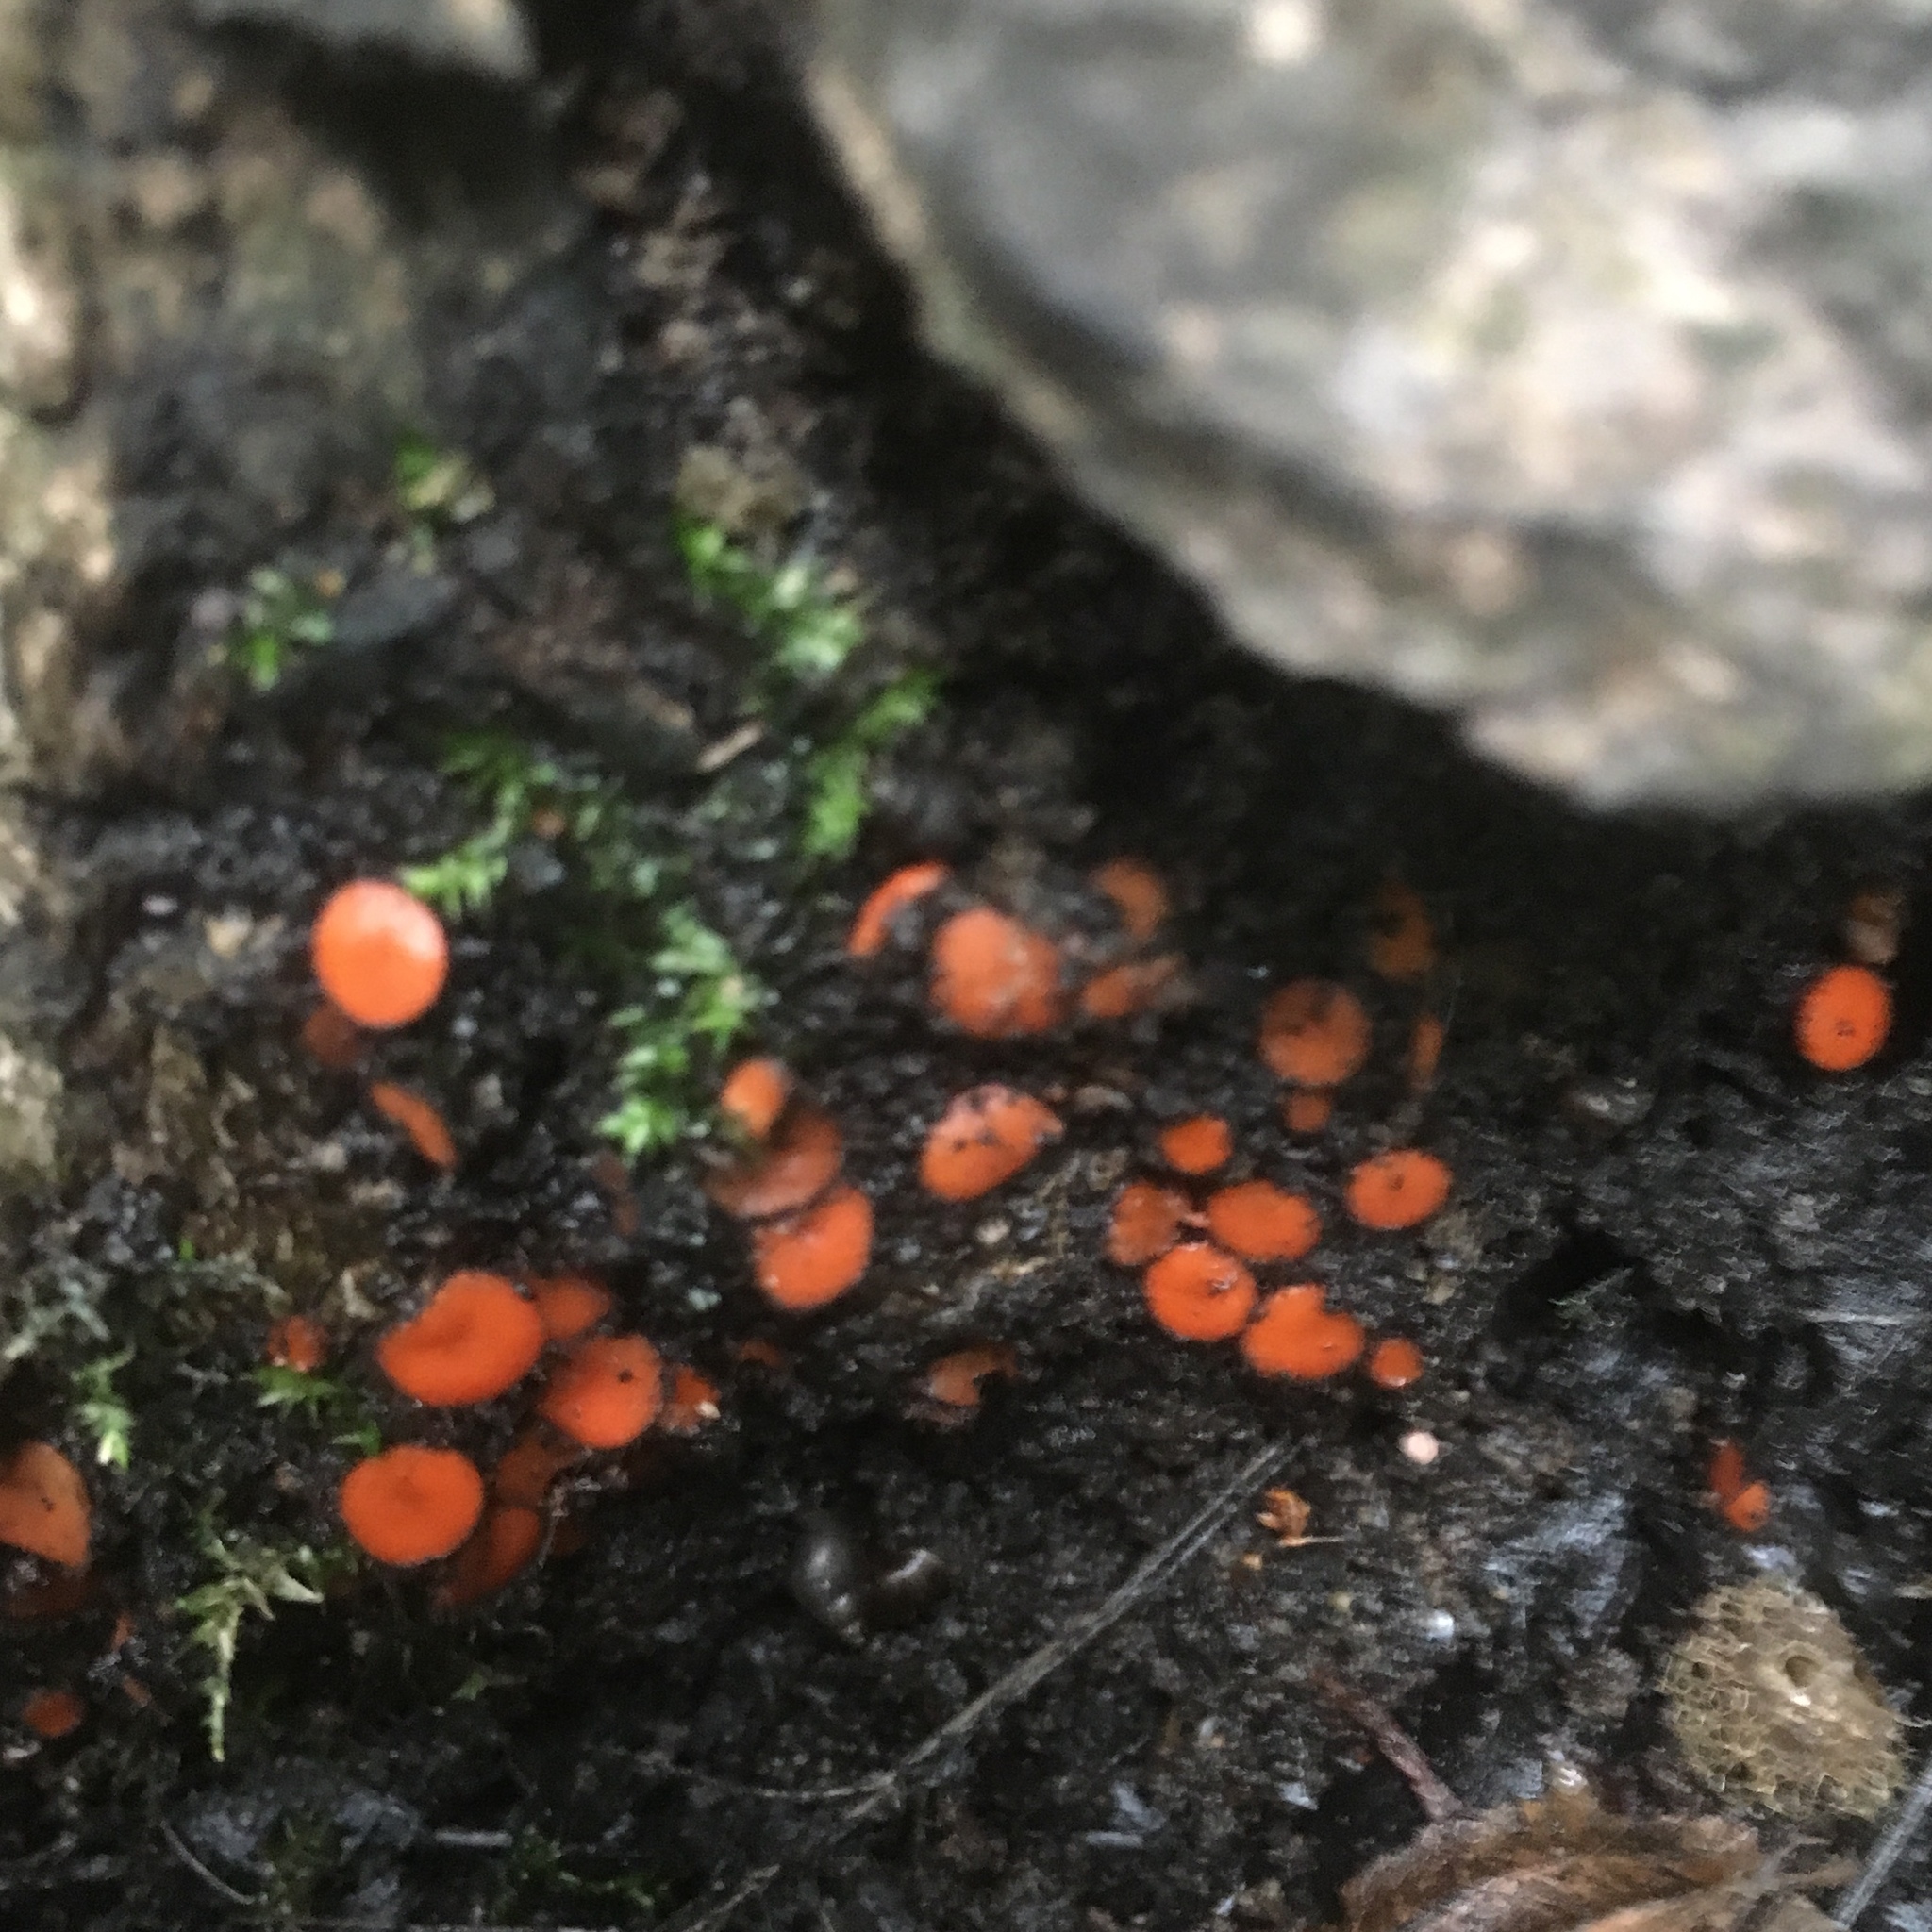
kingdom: Fungi
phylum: Ascomycota
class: Pezizomycetes
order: Pezizales
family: Pyronemataceae
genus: Scutellinia
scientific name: Scutellinia
